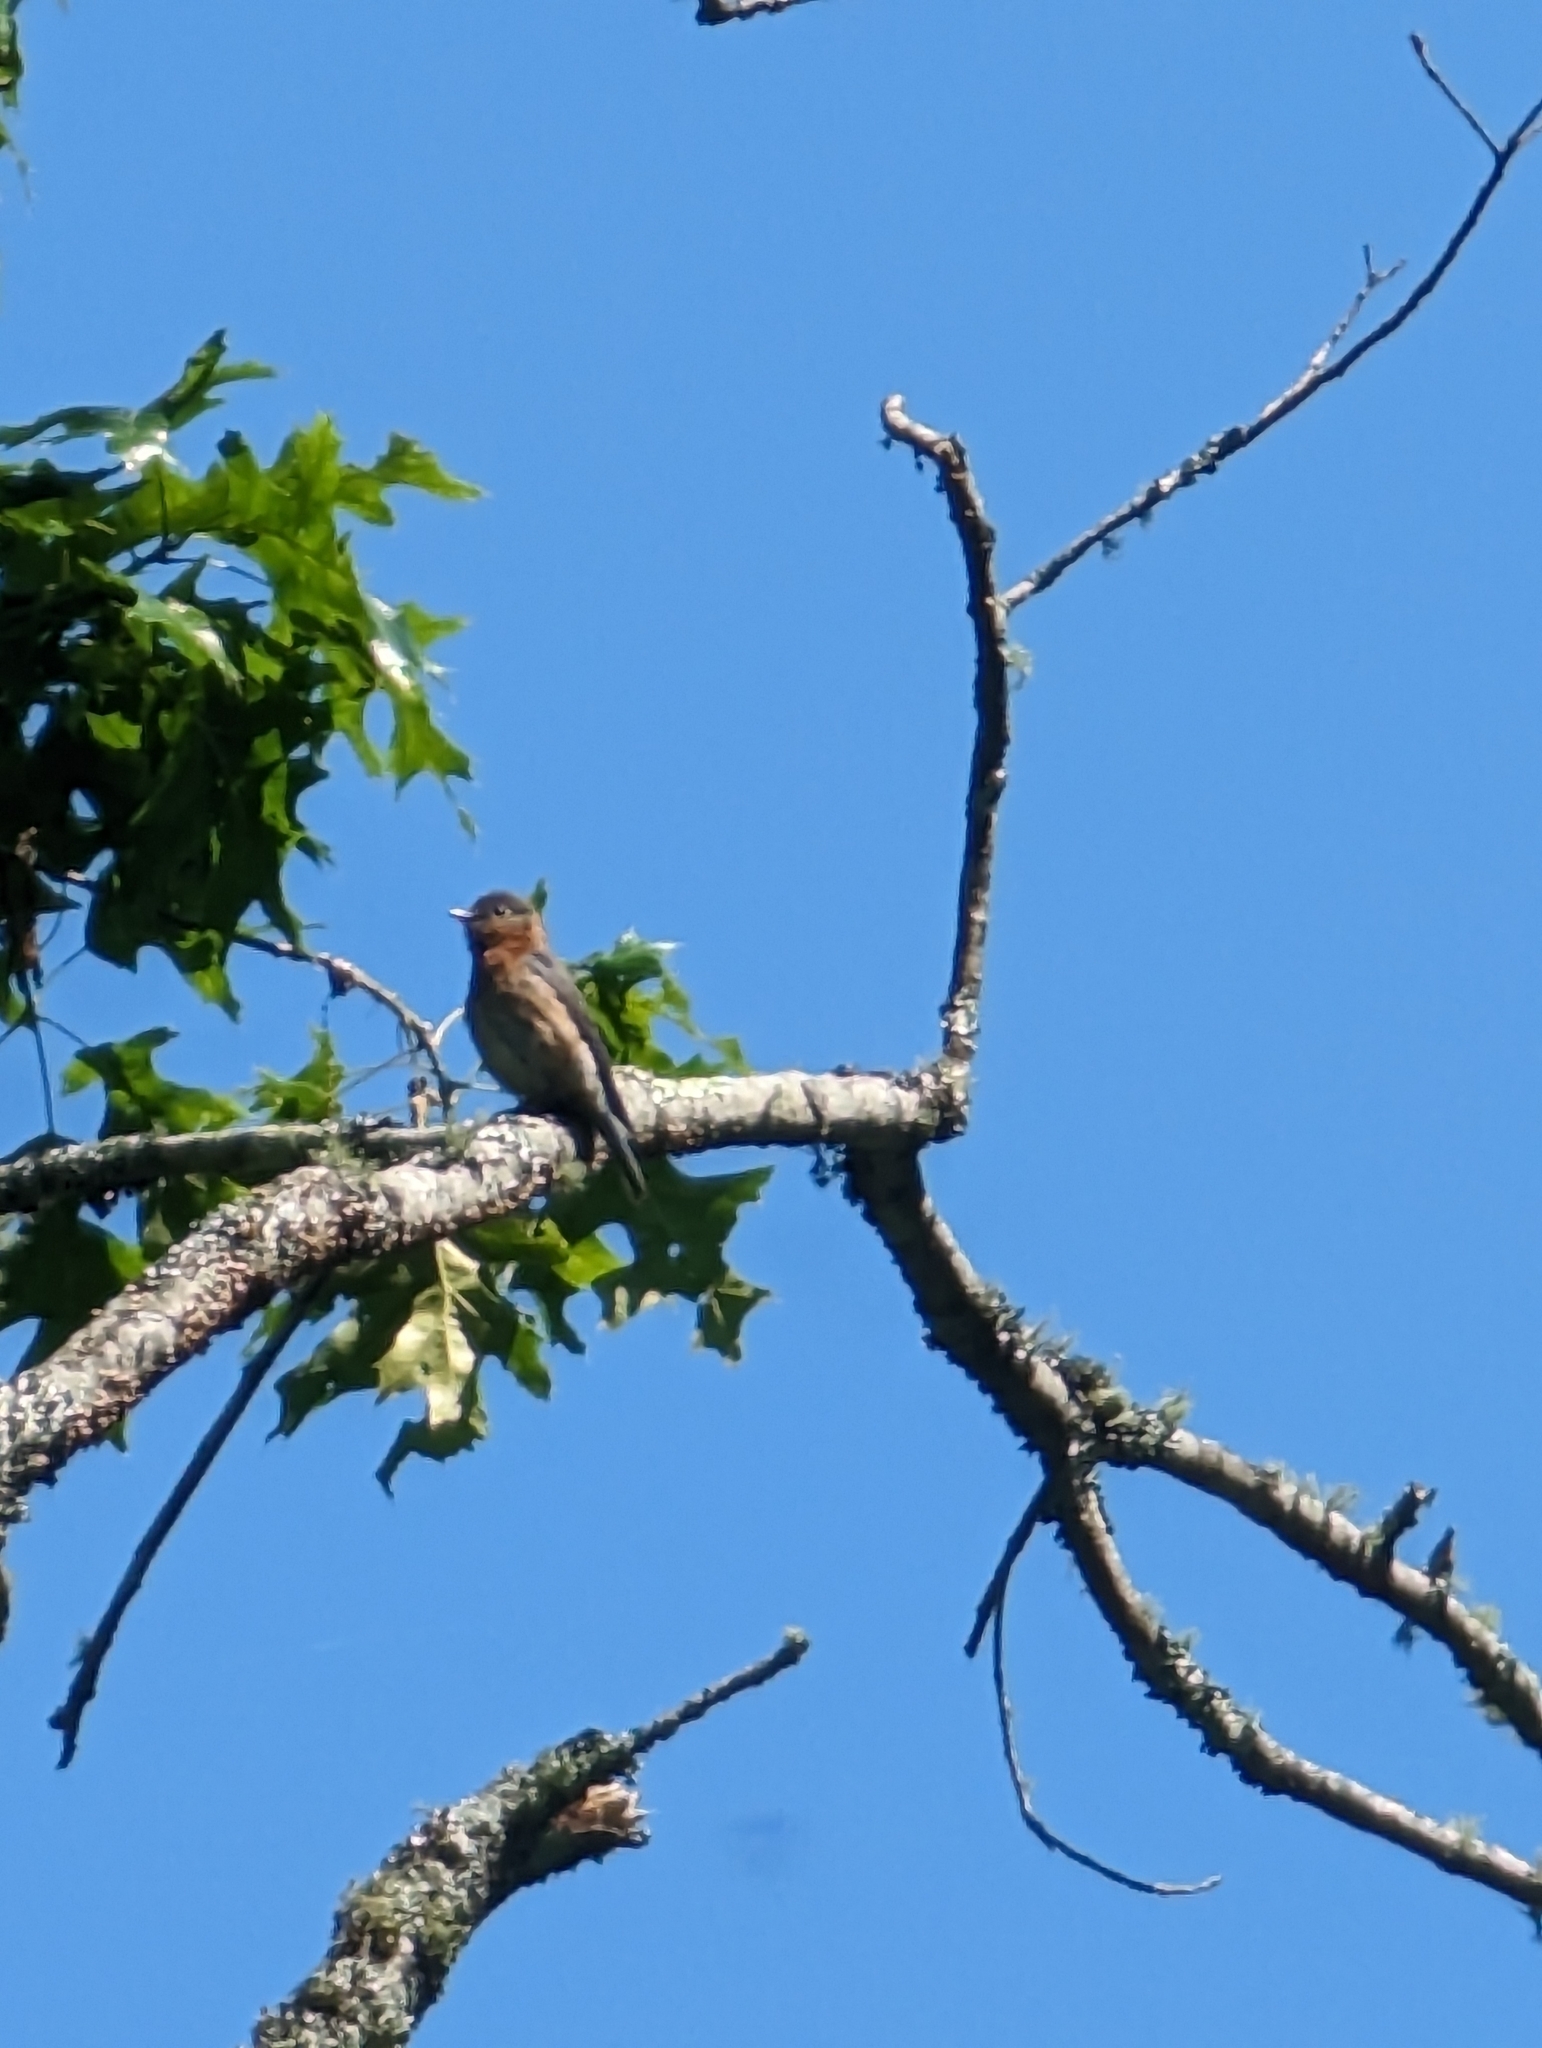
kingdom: Animalia
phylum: Chordata
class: Aves
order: Passeriformes
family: Turdidae
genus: Sialia
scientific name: Sialia sialis
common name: Eastern bluebird
